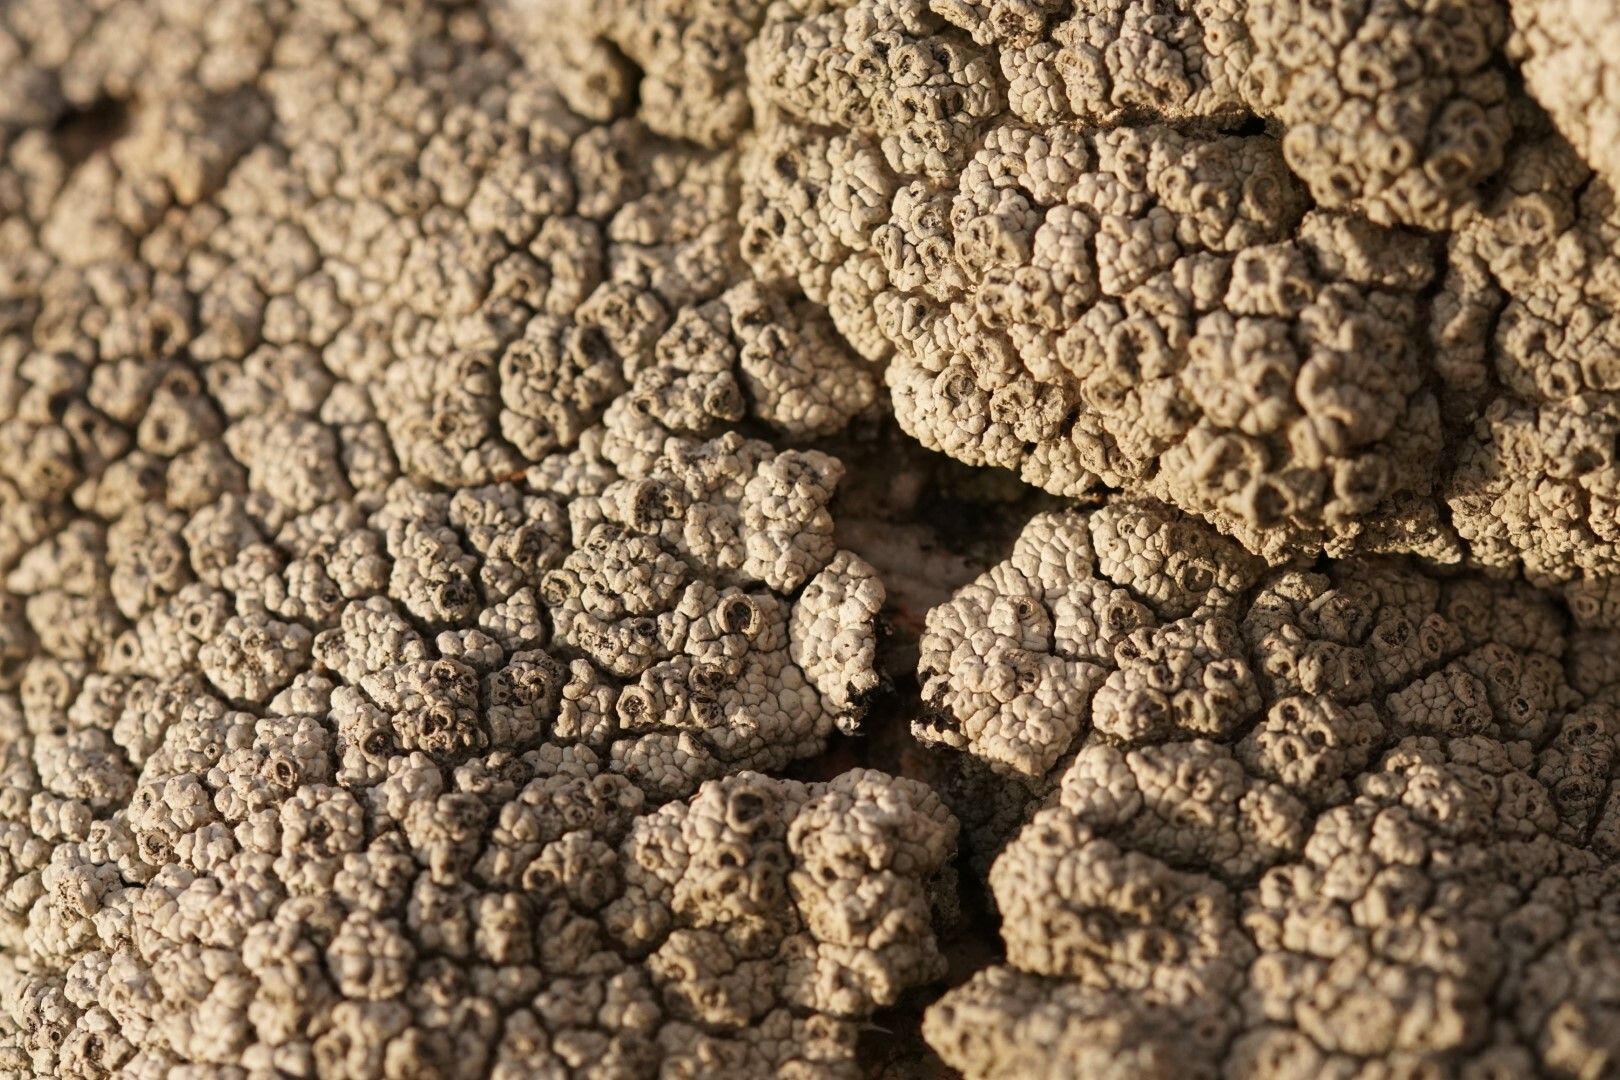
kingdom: Fungi
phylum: Ascomycota
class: Lecanoromycetes
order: Ostropales
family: Graphidaceae
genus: Diploschistes
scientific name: Diploschistes scruposus
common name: Crater lichen
